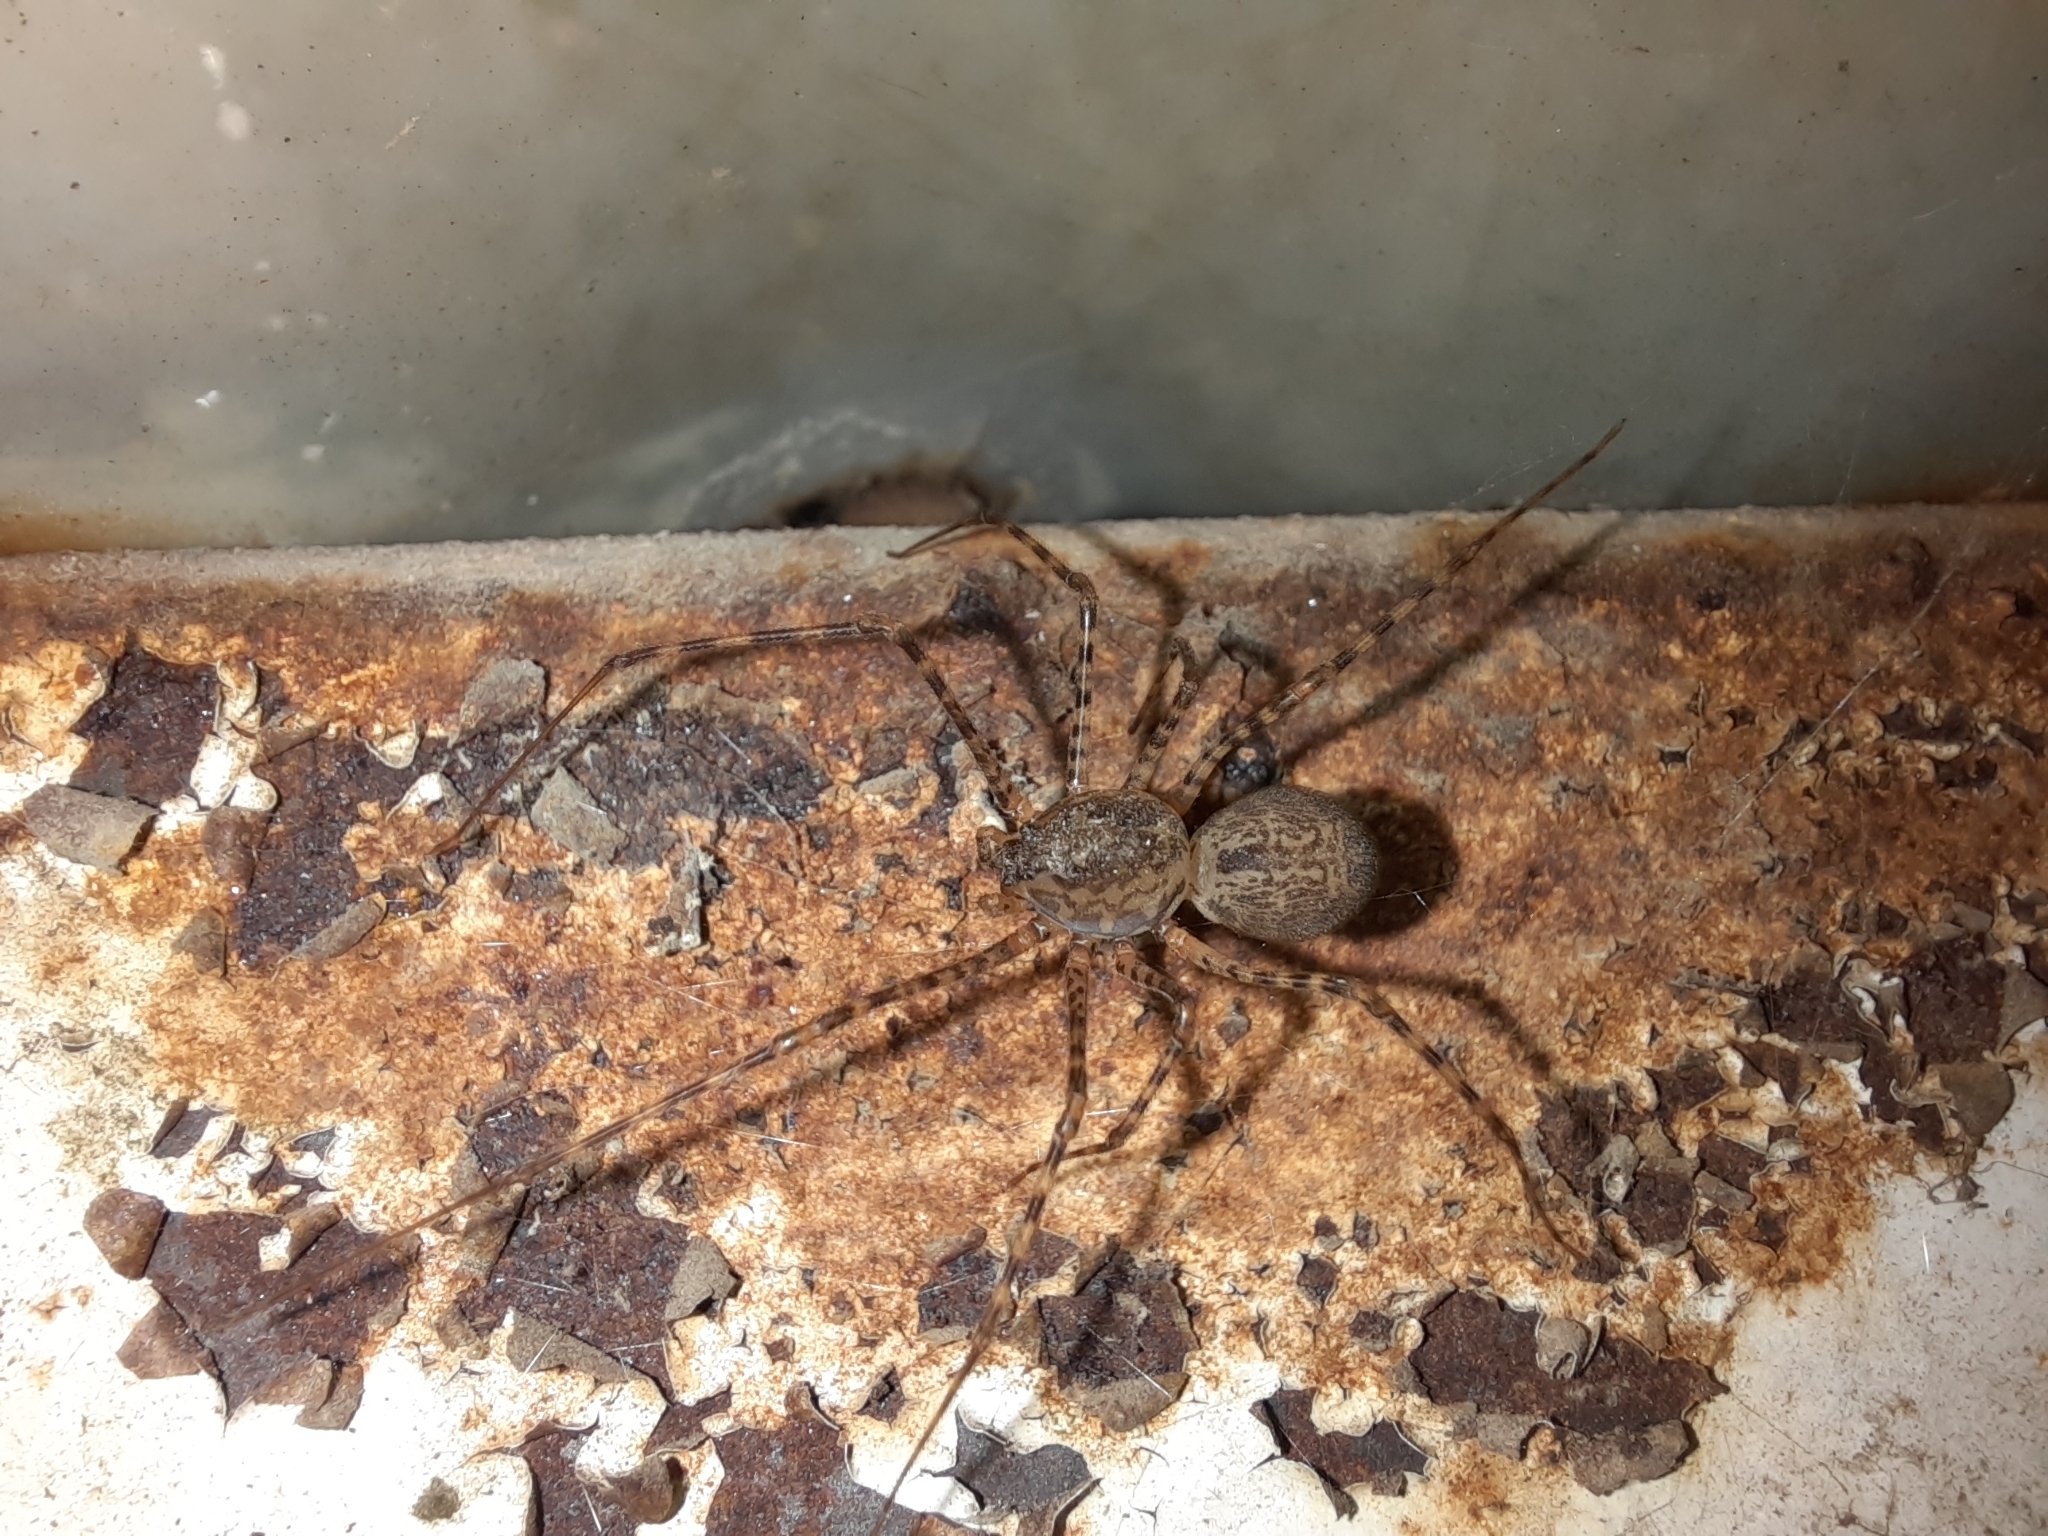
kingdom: Animalia
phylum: Arthropoda
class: Arachnida
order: Araneae
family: Scytodidae
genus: Scytodes
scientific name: Scytodes globula
